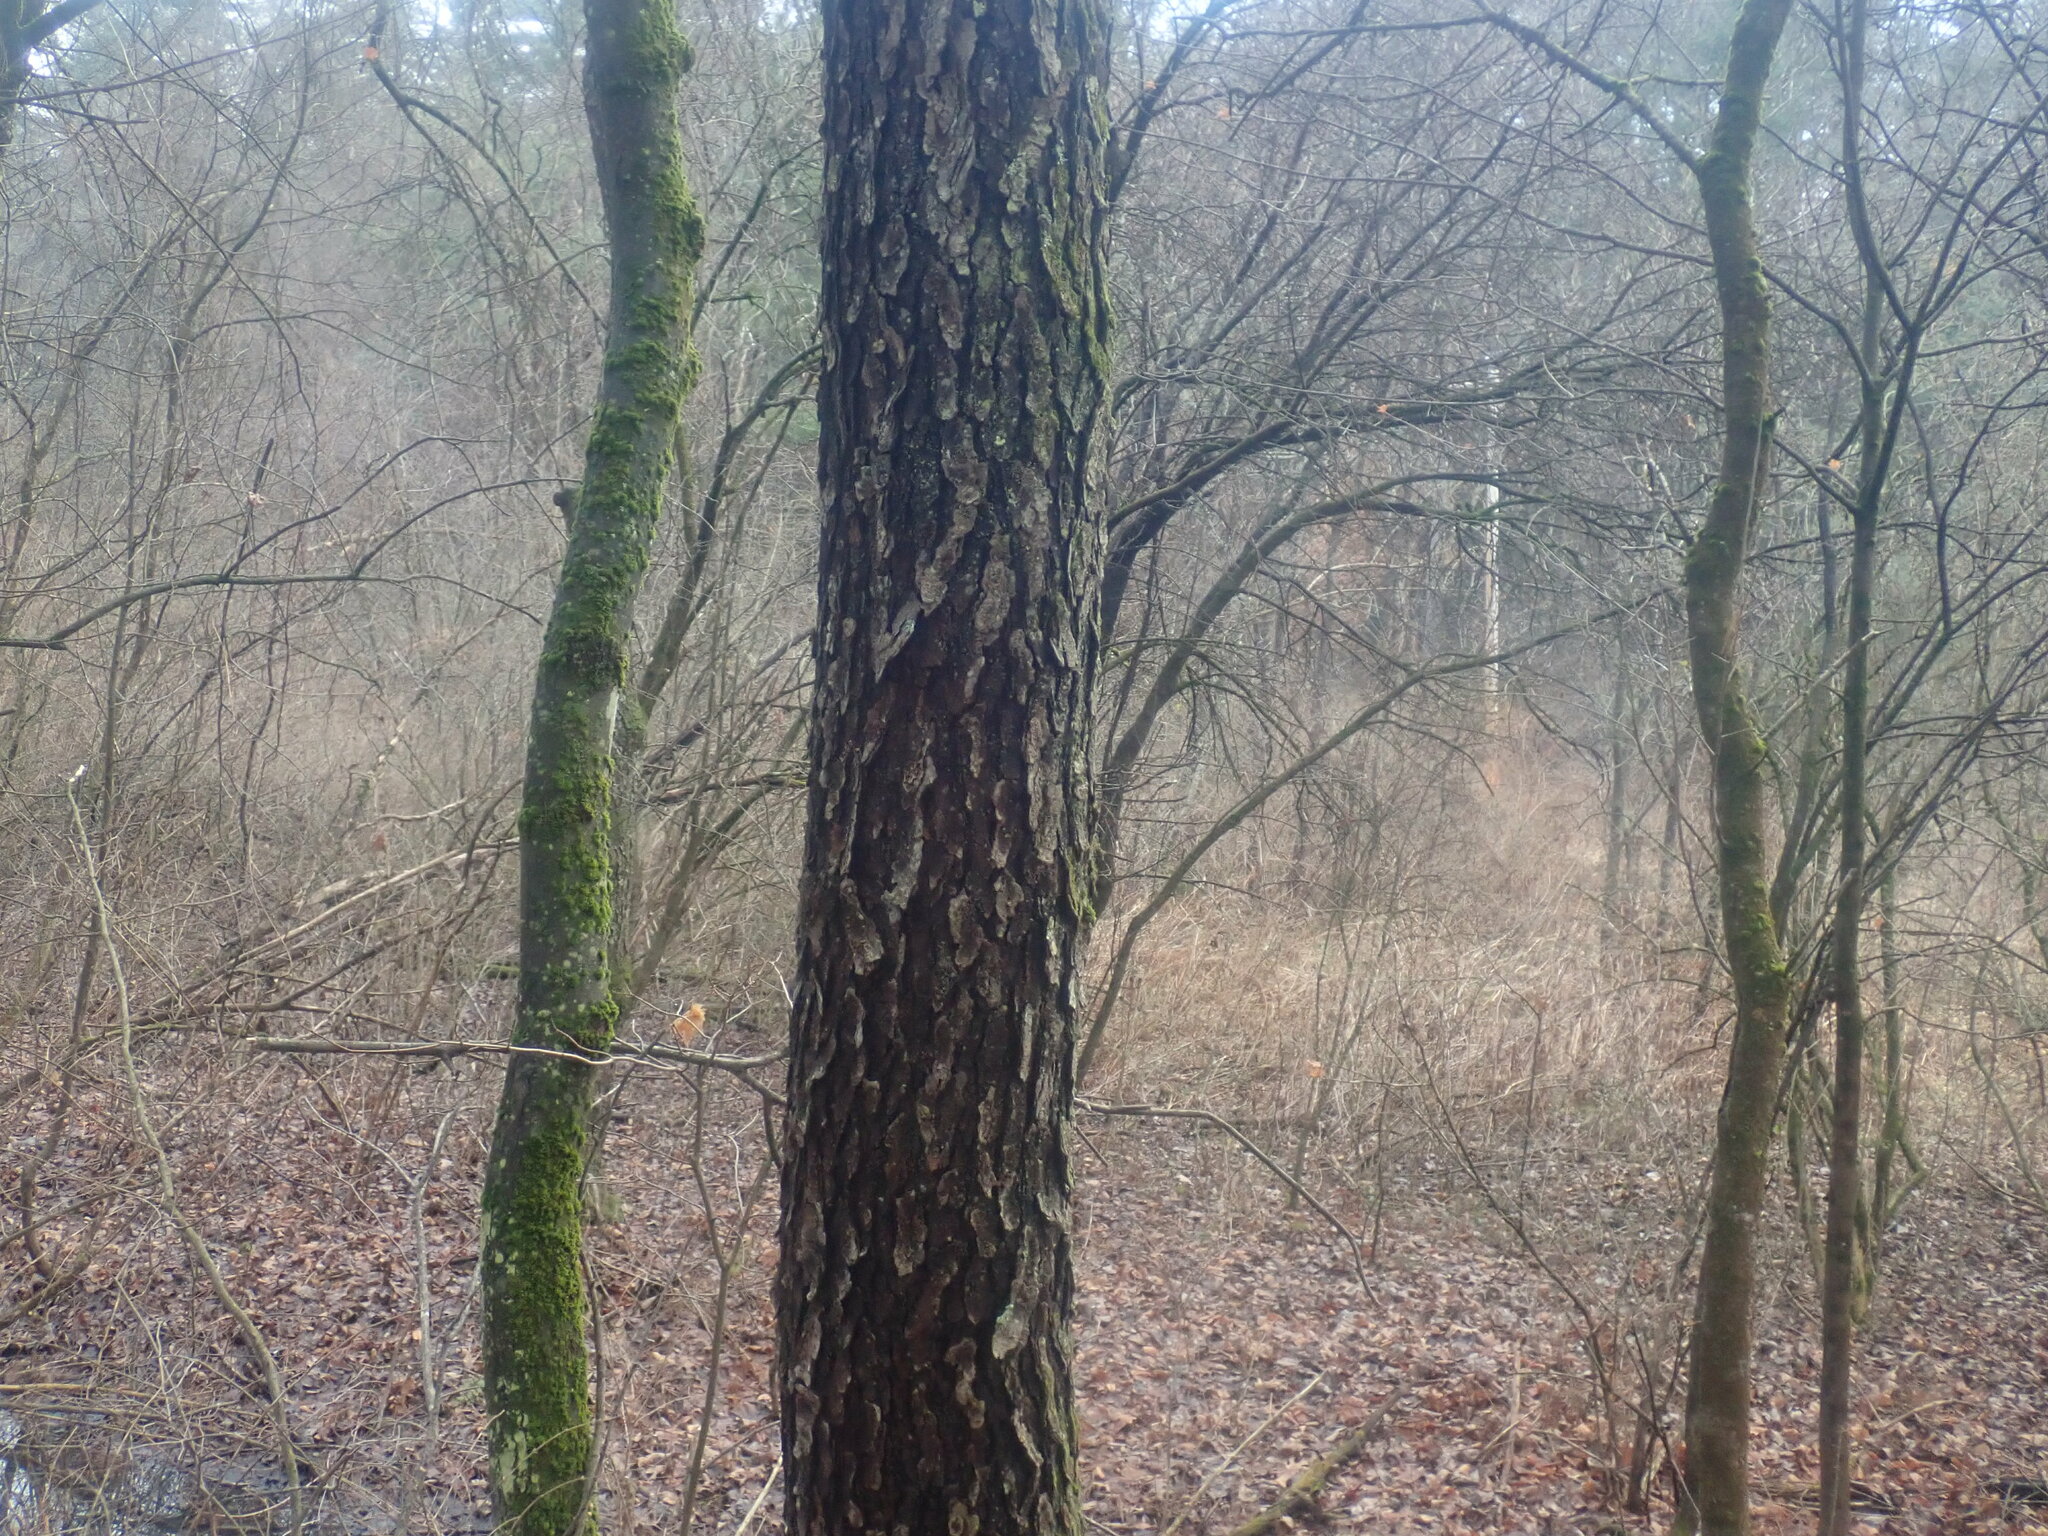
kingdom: Plantae
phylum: Tracheophyta
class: Magnoliopsida
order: Rosales
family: Rosaceae
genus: Prunus
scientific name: Prunus serotina
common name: Black cherry
